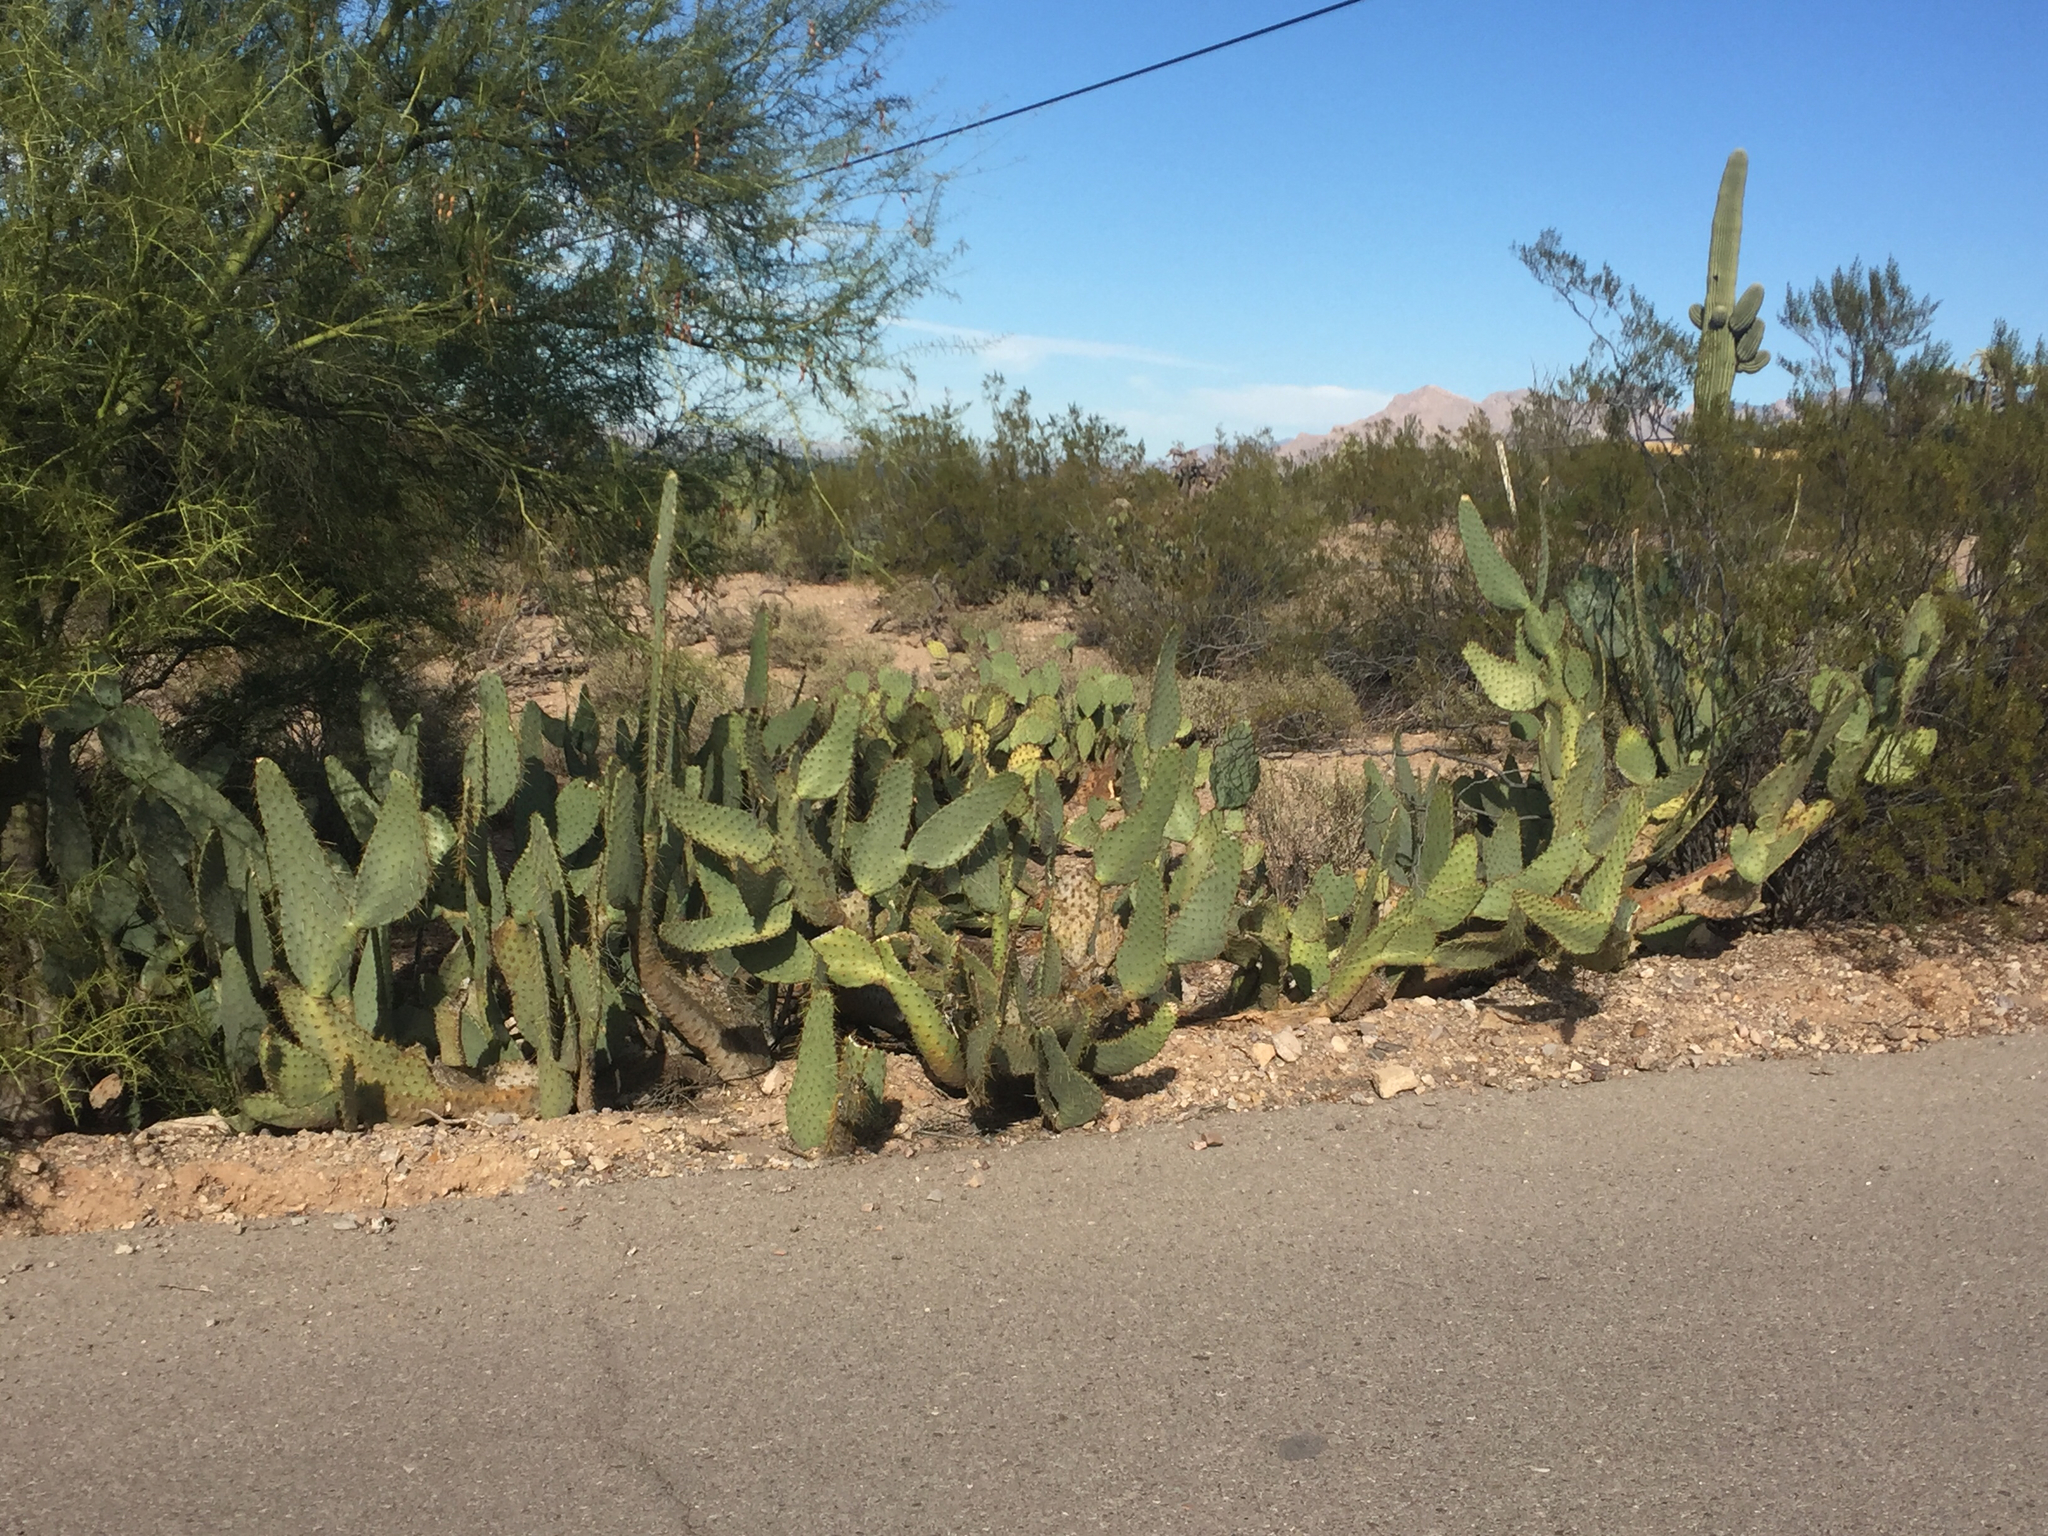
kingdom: Plantae
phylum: Tracheophyta
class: Magnoliopsida
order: Caryophyllales
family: Cactaceae
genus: Opuntia
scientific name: Opuntia engelmannii
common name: Cactus-apple
